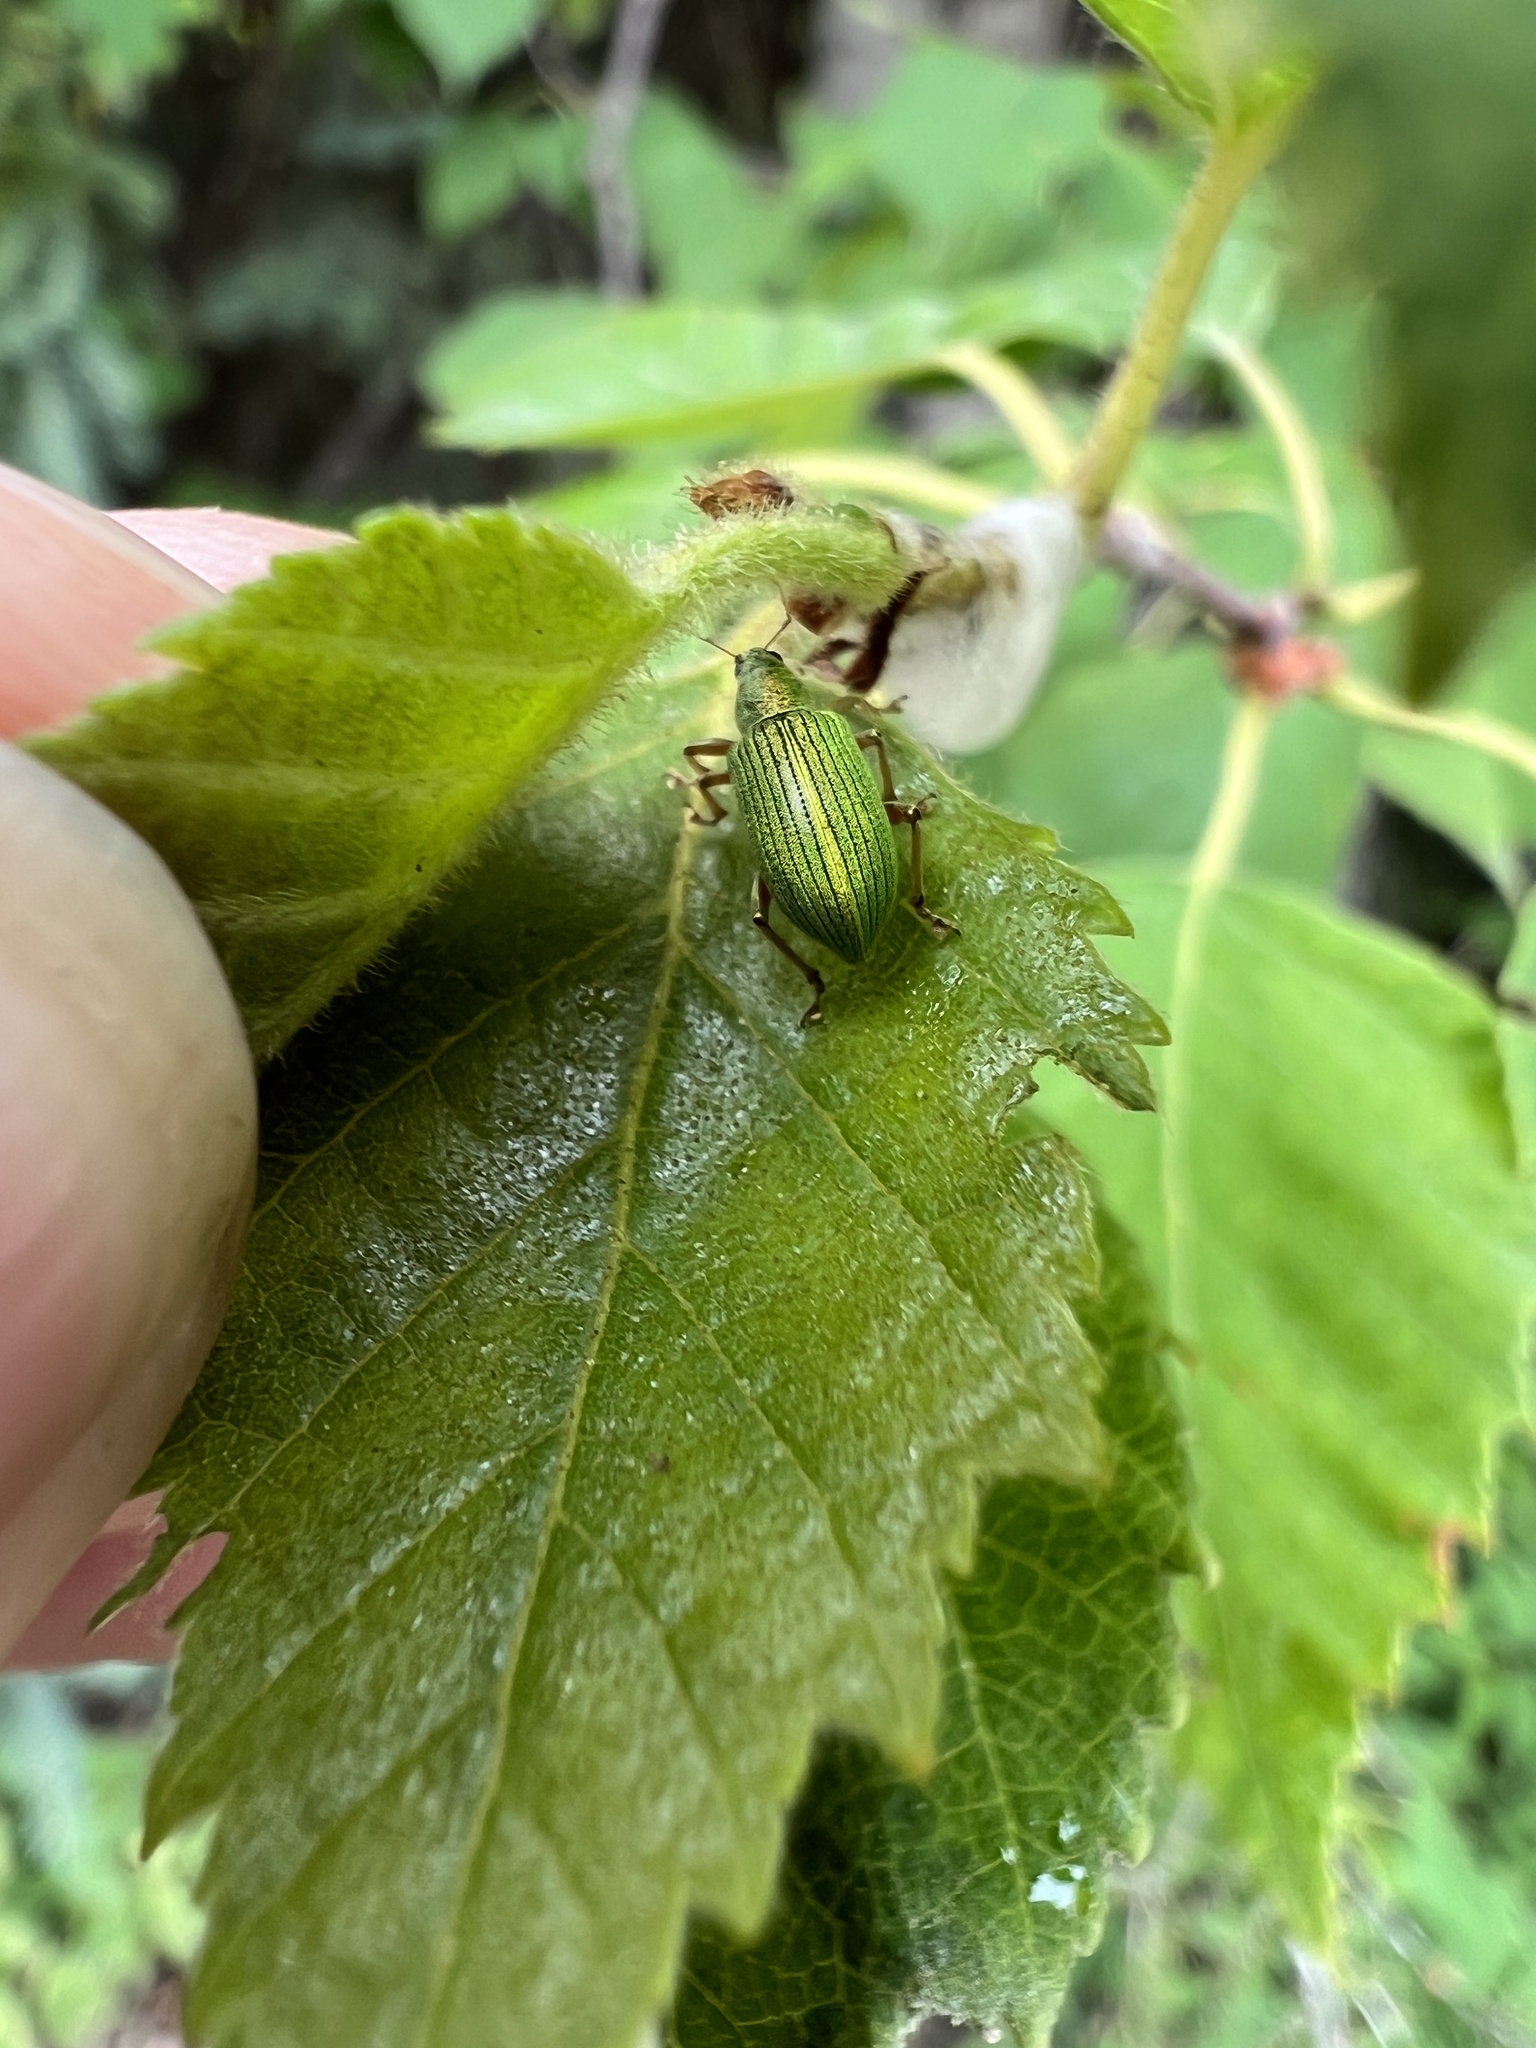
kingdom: Animalia
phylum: Arthropoda
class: Insecta
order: Coleoptera
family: Curculionidae
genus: Polydrusus
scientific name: Polydrusus formosus
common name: Weevil
